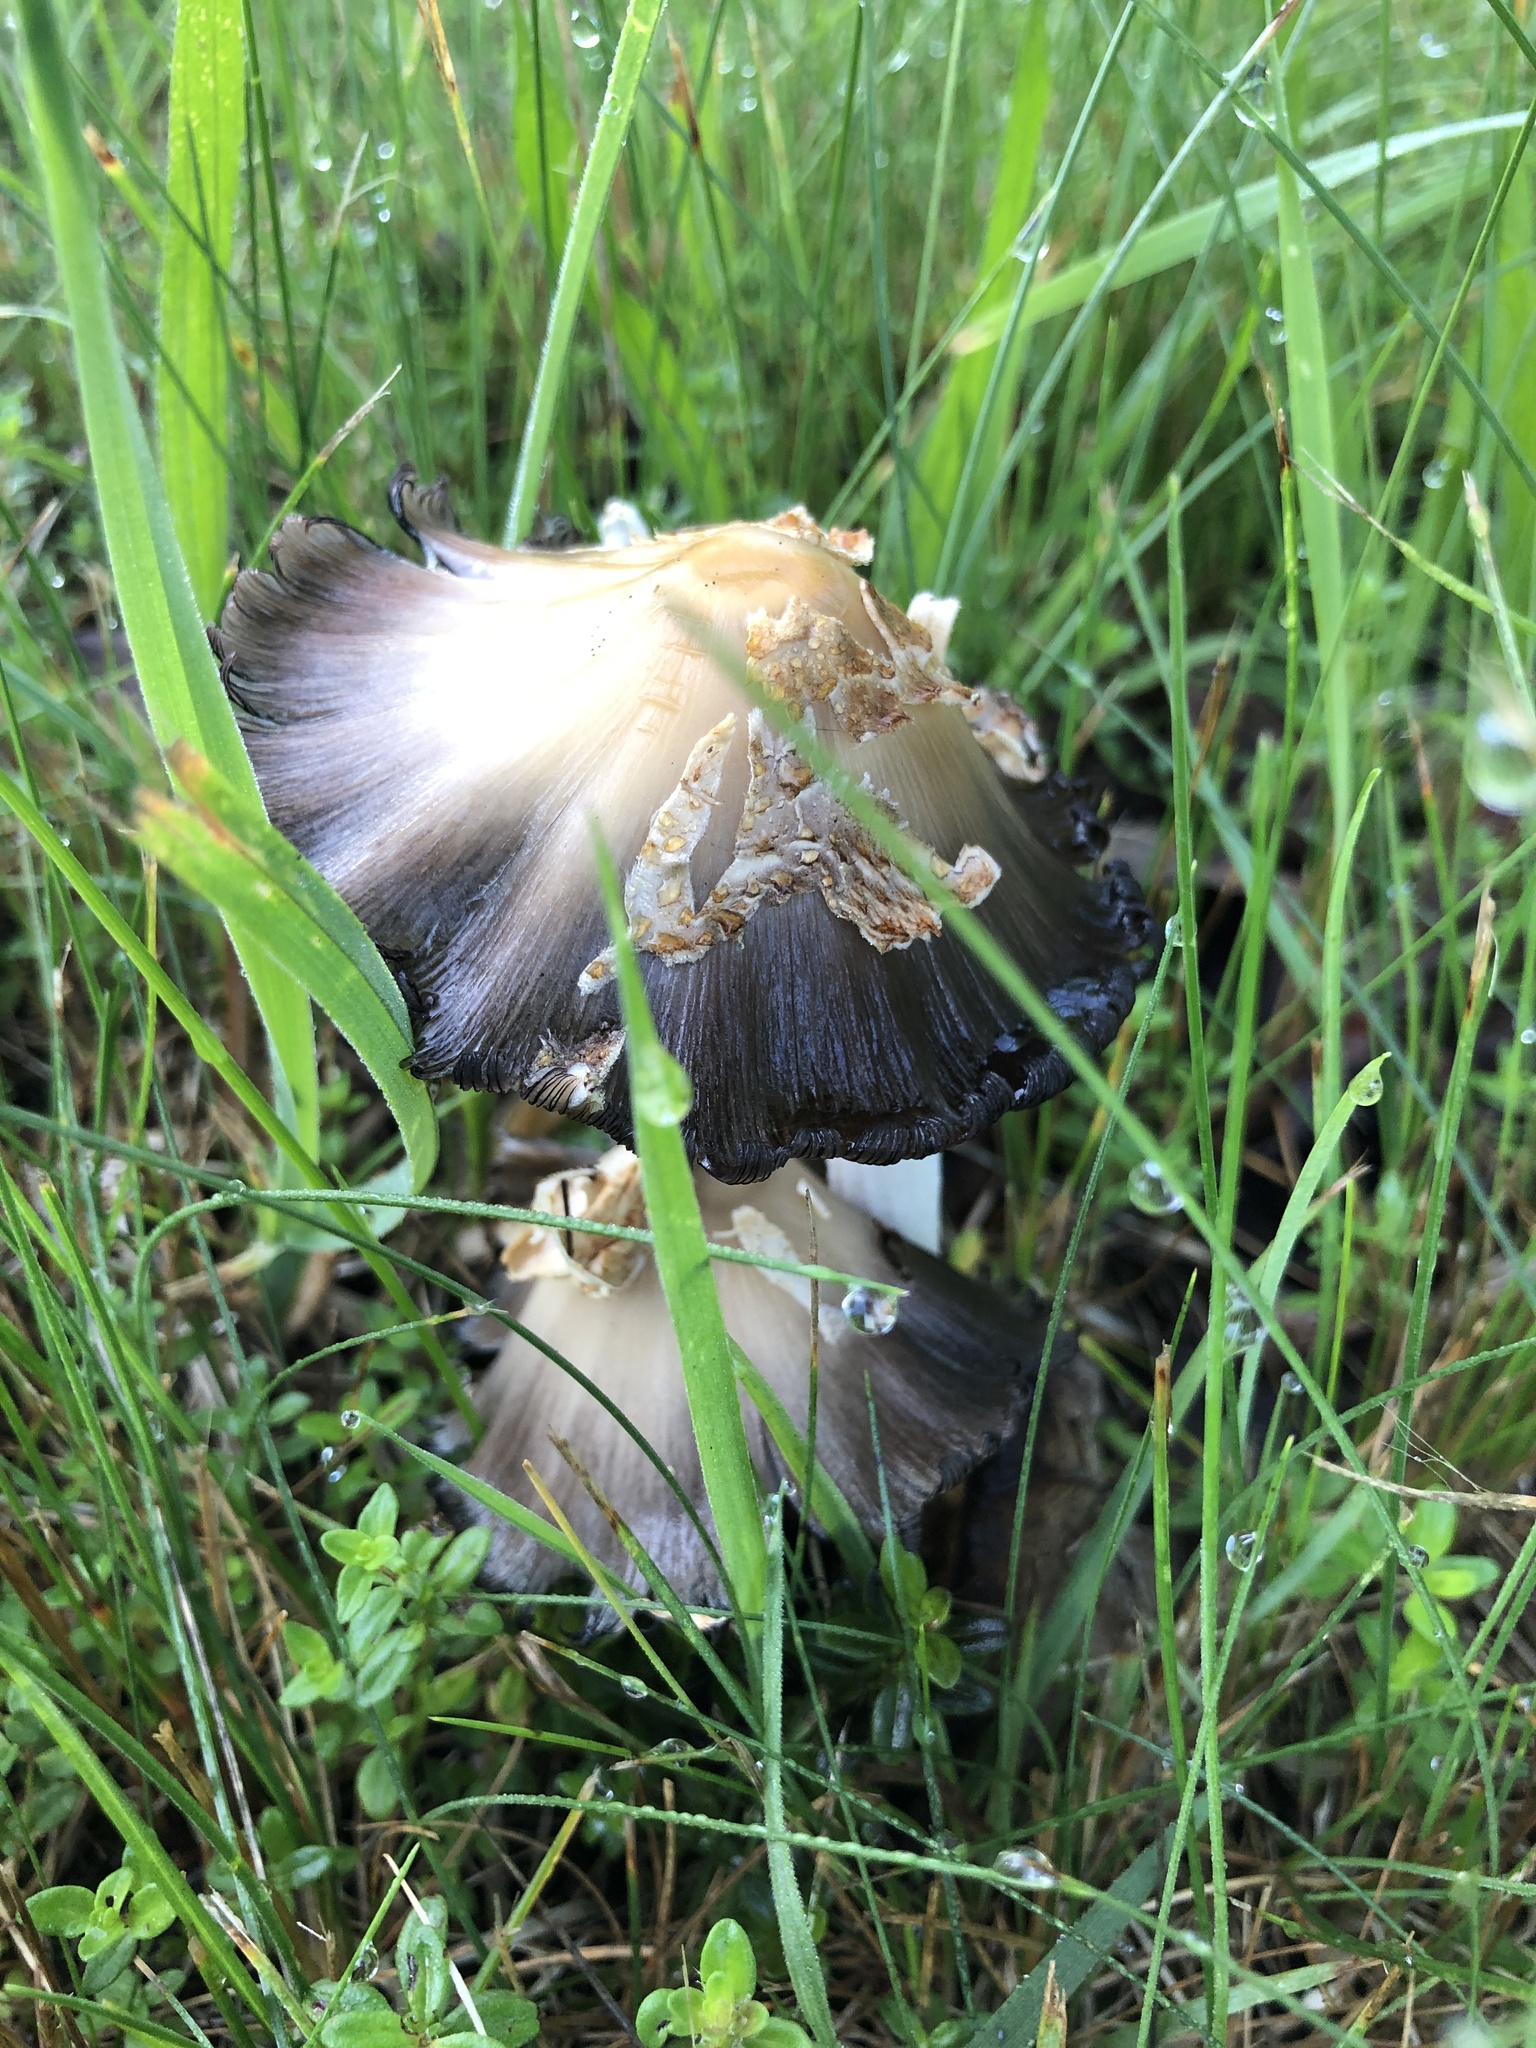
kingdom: Fungi
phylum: Basidiomycota
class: Agaricomycetes
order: Agaricales
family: Psathyrellaceae
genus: Coprinopsis
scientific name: Coprinopsis variegata
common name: Scaly ink cap
